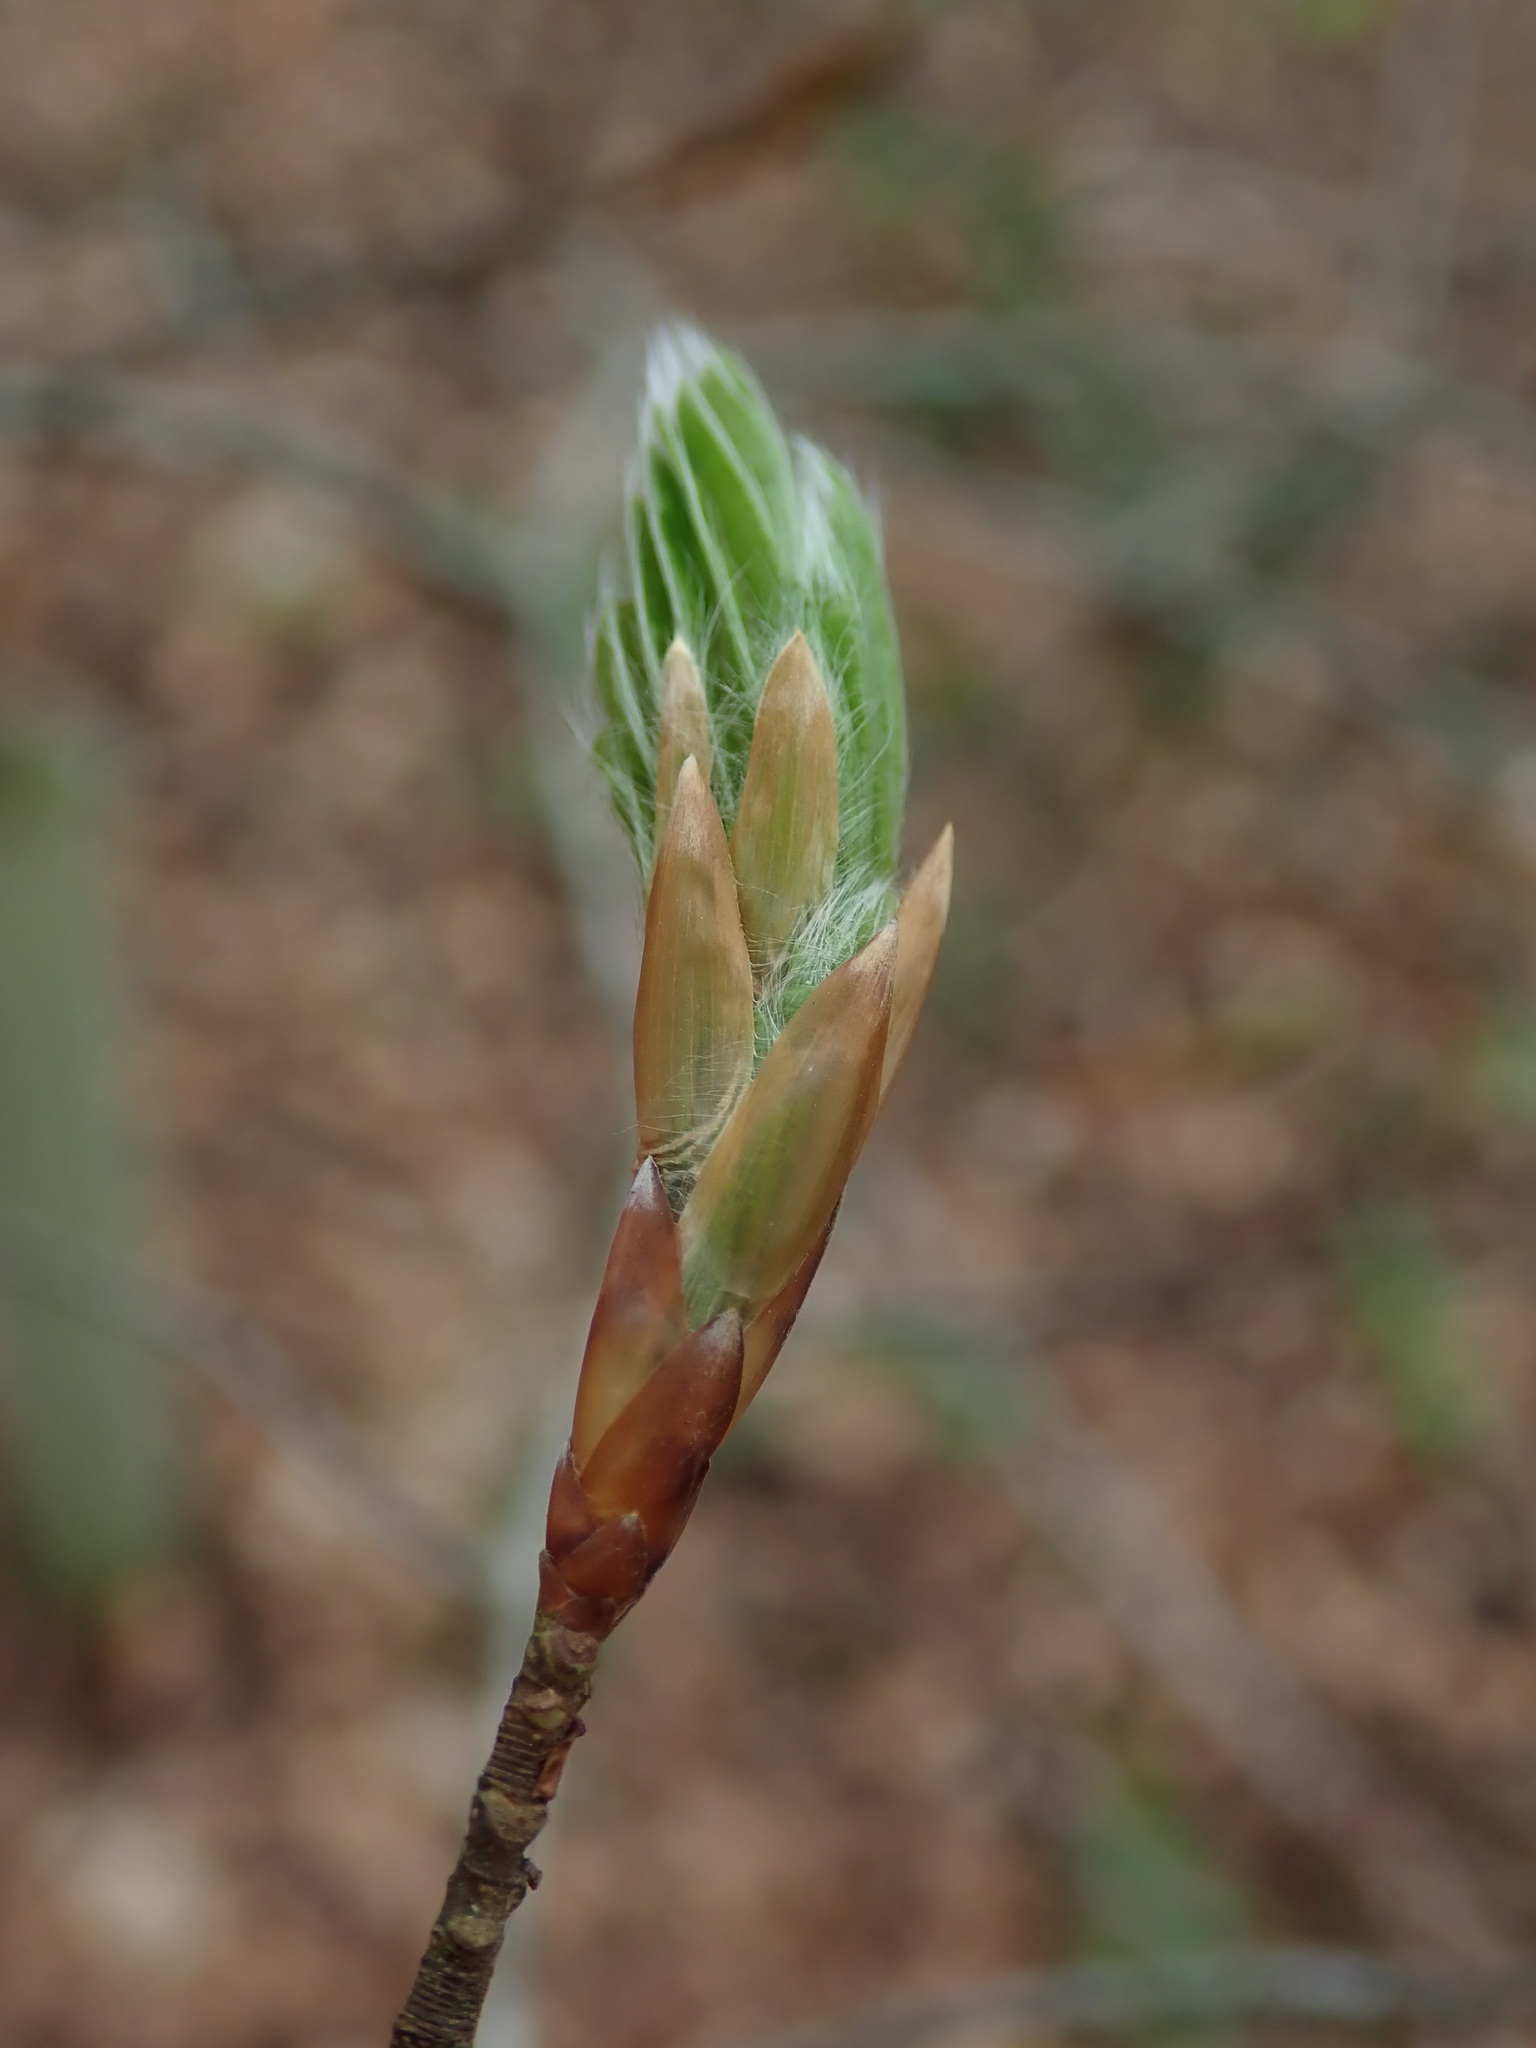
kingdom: Plantae
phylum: Tracheophyta
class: Magnoliopsida
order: Fagales
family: Fagaceae
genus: Fagus
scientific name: Fagus sylvatica
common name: Beech
